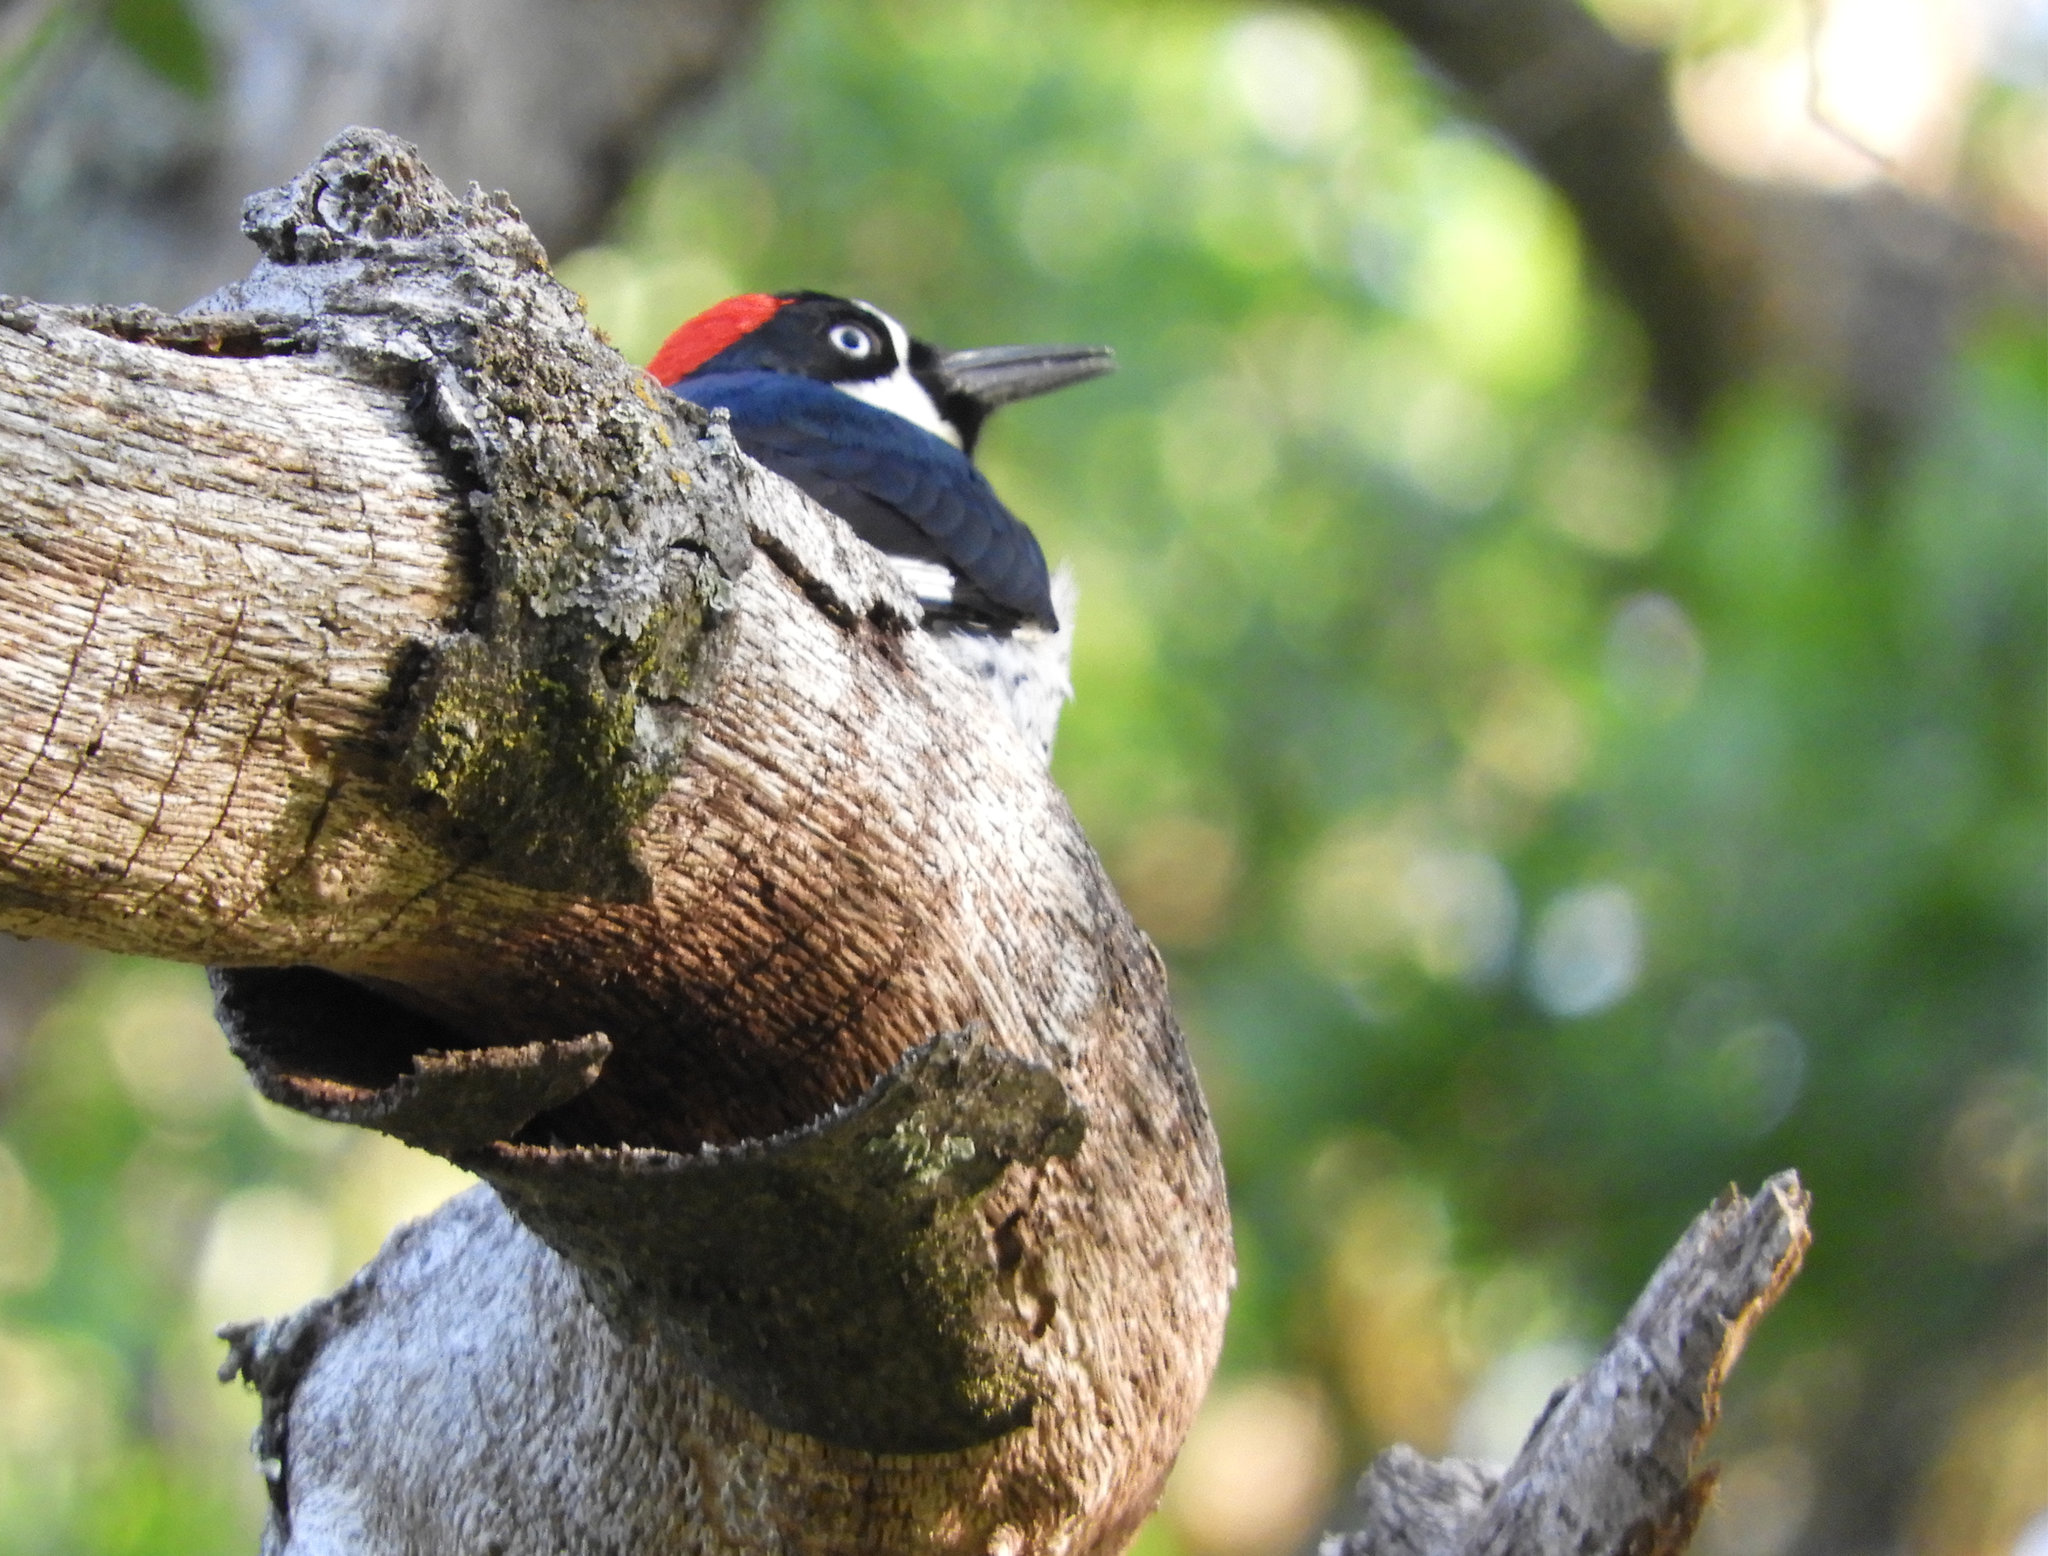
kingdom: Animalia
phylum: Chordata
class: Aves
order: Piciformes
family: Picidae
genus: Melanerpes
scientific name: Melanerpes formicivorus
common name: Acorn woodpecker
